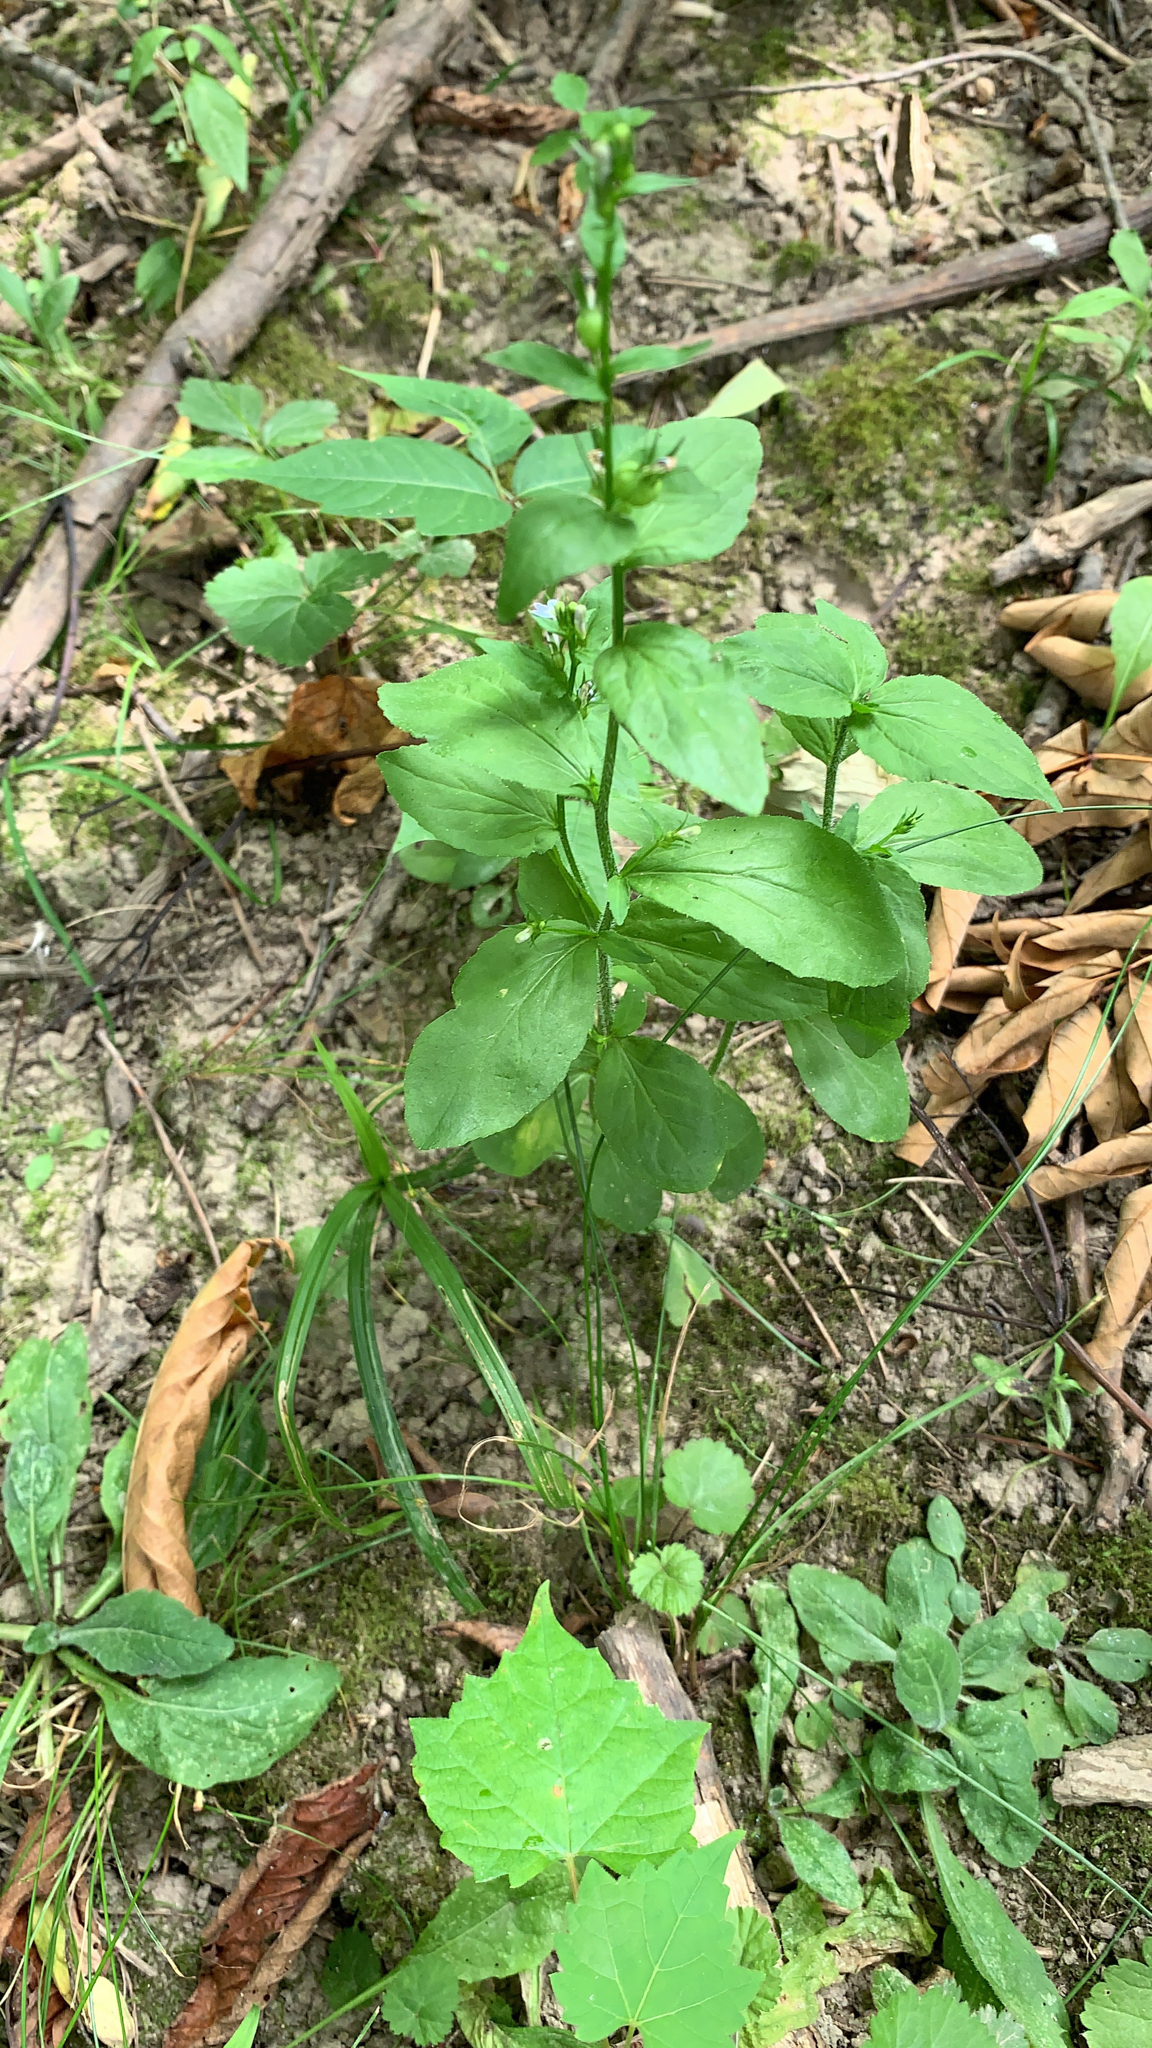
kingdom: Plantae
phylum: Tracheophyta
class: Magnoliopsida
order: Asterales
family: Campanulaceae
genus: Lobelia
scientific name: Lobelia inflata
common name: Indian tobacco
